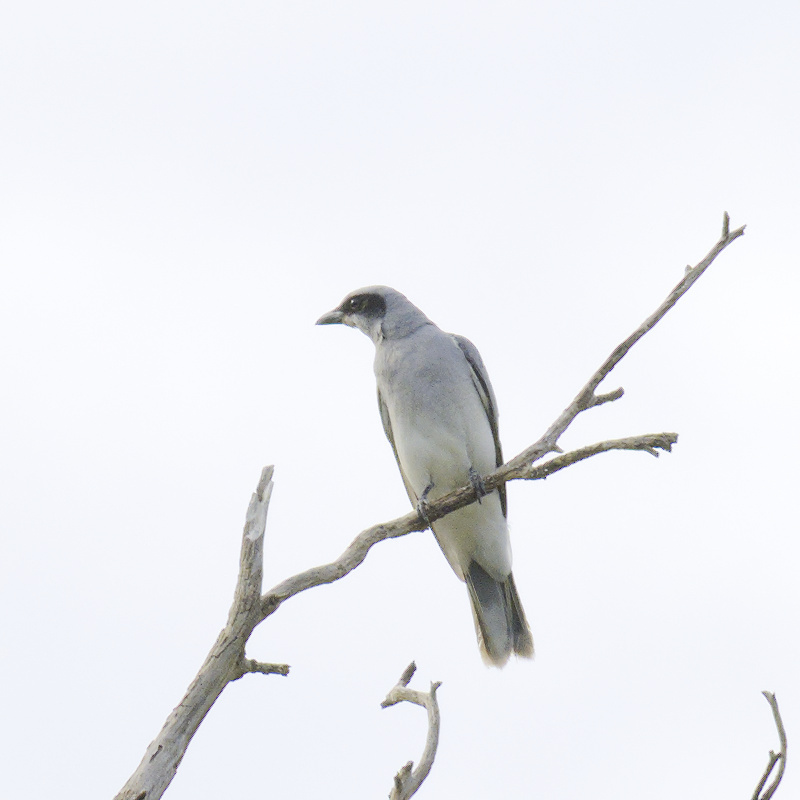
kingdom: Animalia
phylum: Chordata
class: Aves
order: Passeriformes
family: Campephagidae
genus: Coracina
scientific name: Coracina novaehollandiae
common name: Black-faced cuckooshrike
